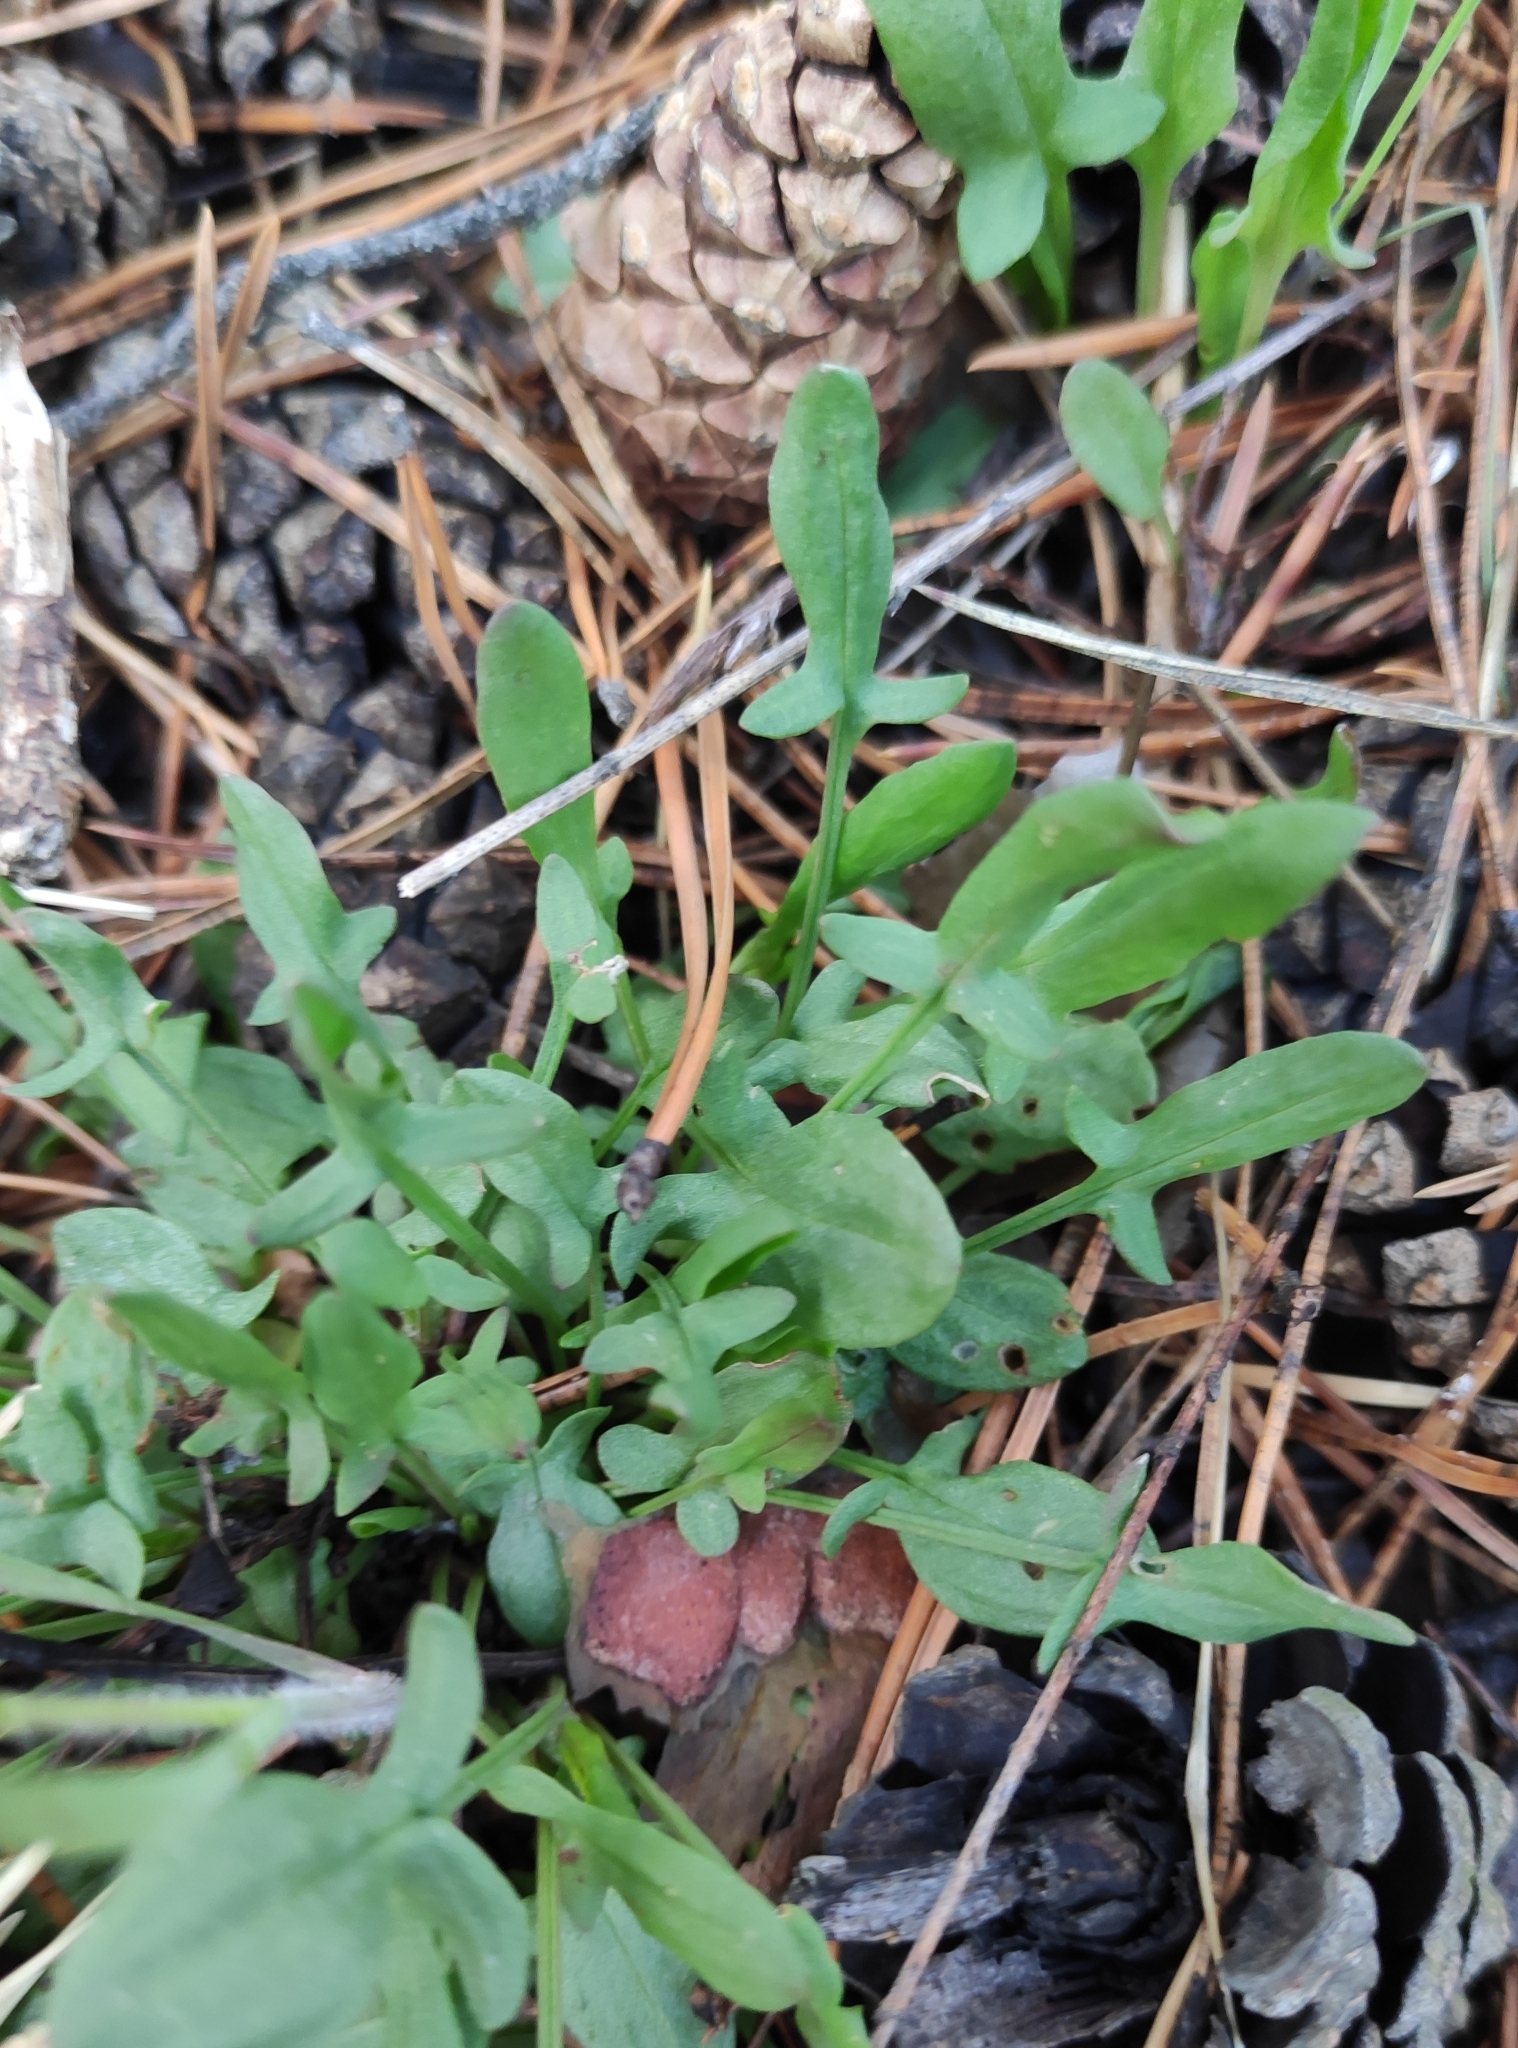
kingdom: Plantae
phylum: Tracheophyta
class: Magnoliopsida
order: Caryophyllales
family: Polygonaceae
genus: Rumex
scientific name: Rumex acetosella
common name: Common sheep sorrel
